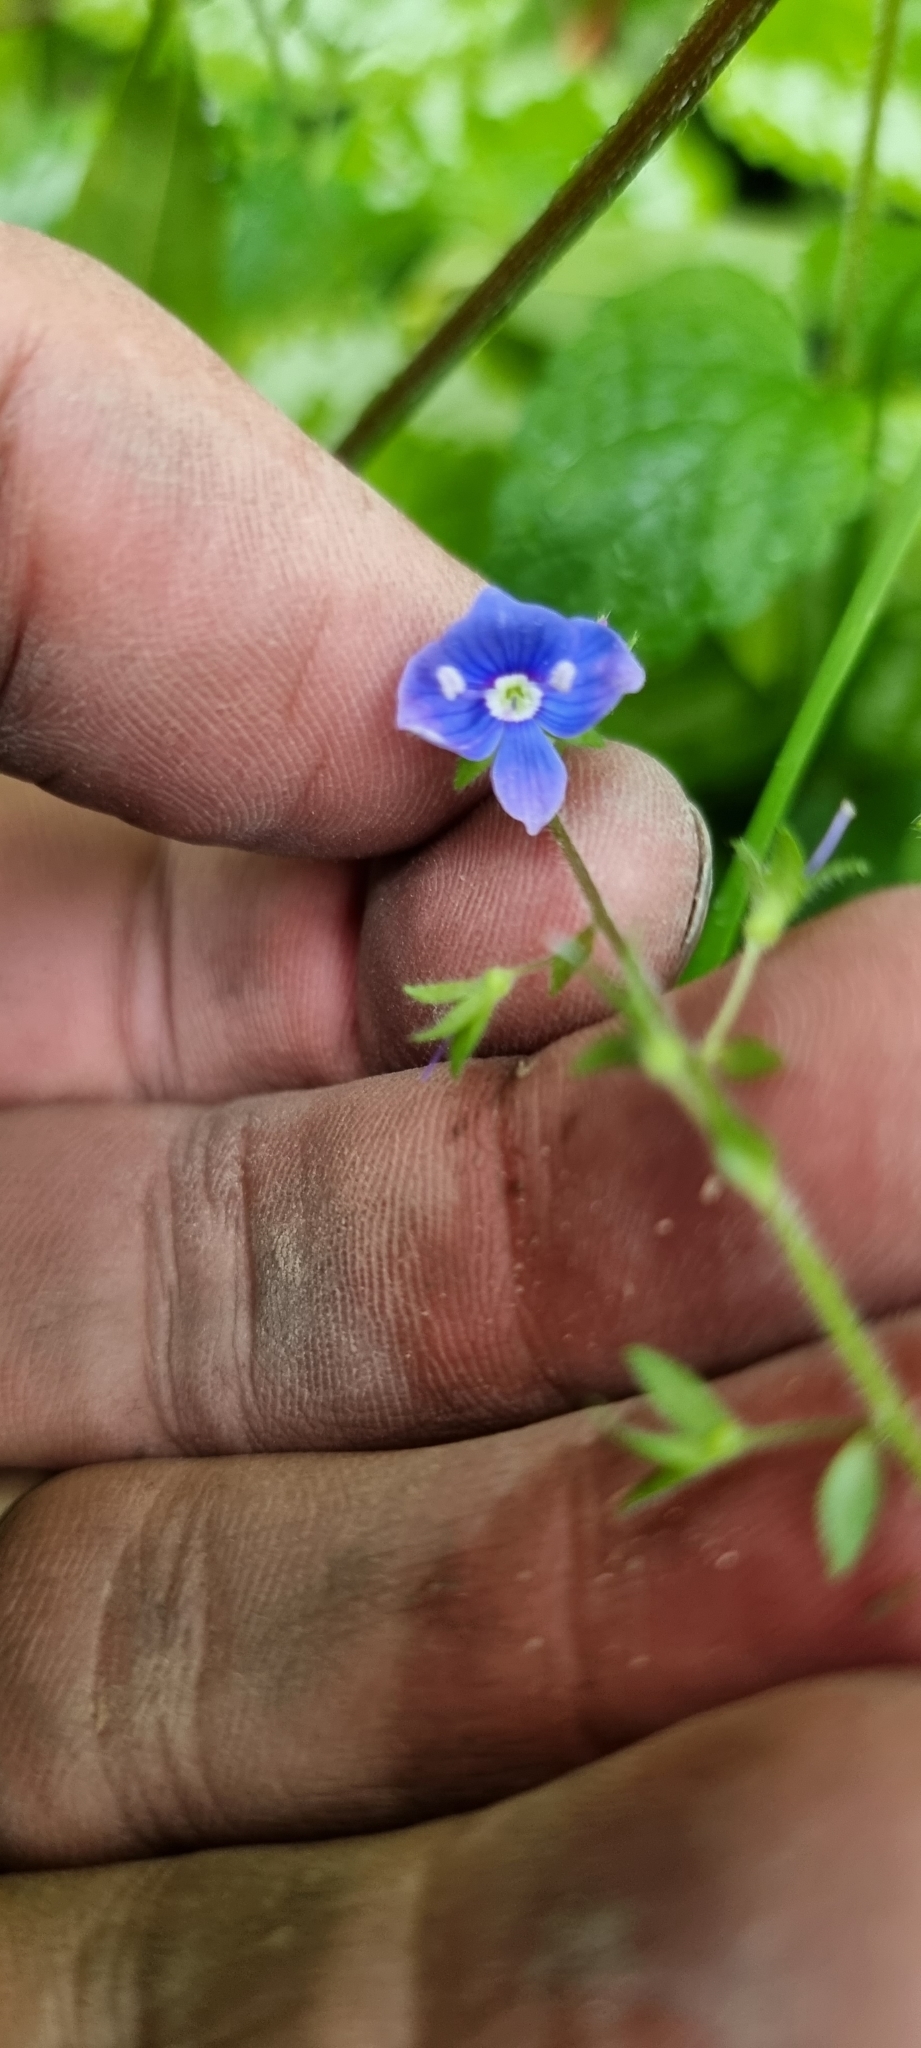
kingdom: Plantae
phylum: Tracheophyta
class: Magnoliopsida
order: Lamiales
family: Plantaginaceae
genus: Veronica
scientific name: Veronica chamaedrys
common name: Germander speedwell
